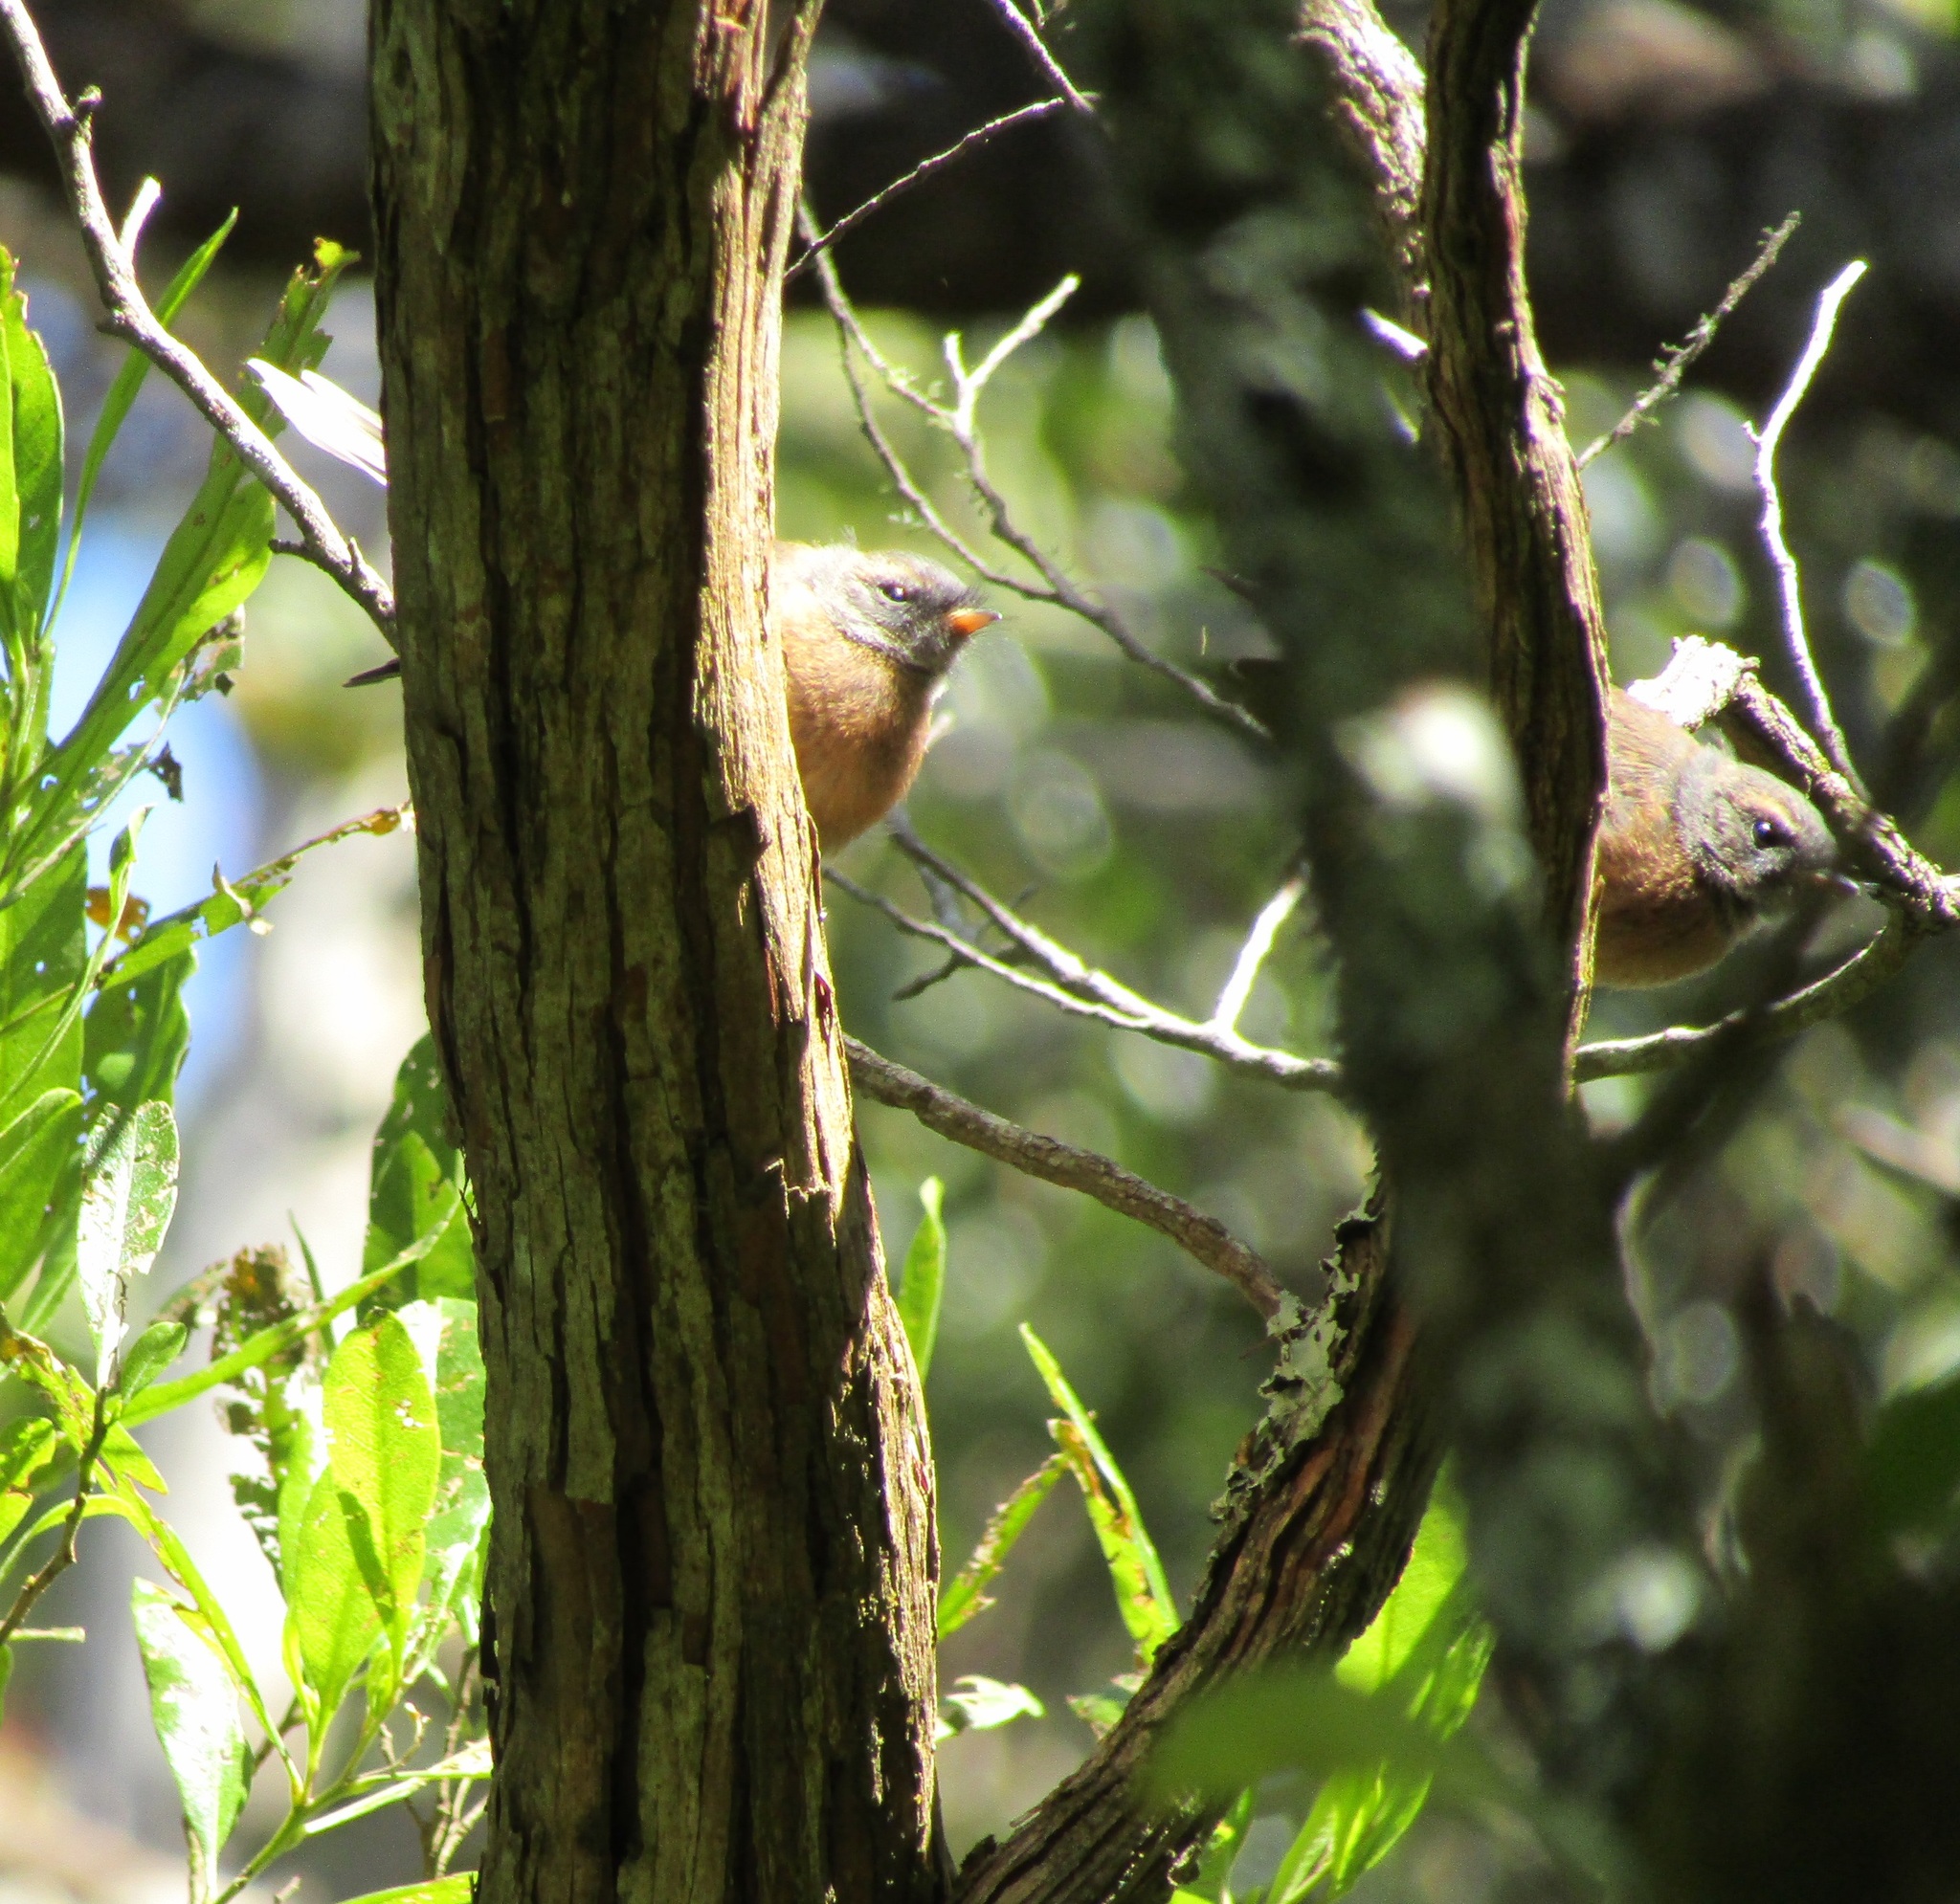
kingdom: Animalia
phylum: Chordata
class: Aves
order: Passeriformes
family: Rhipiduridae
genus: Rhipidura
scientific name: Rhipidura fuliginosa
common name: New zealand fantail
